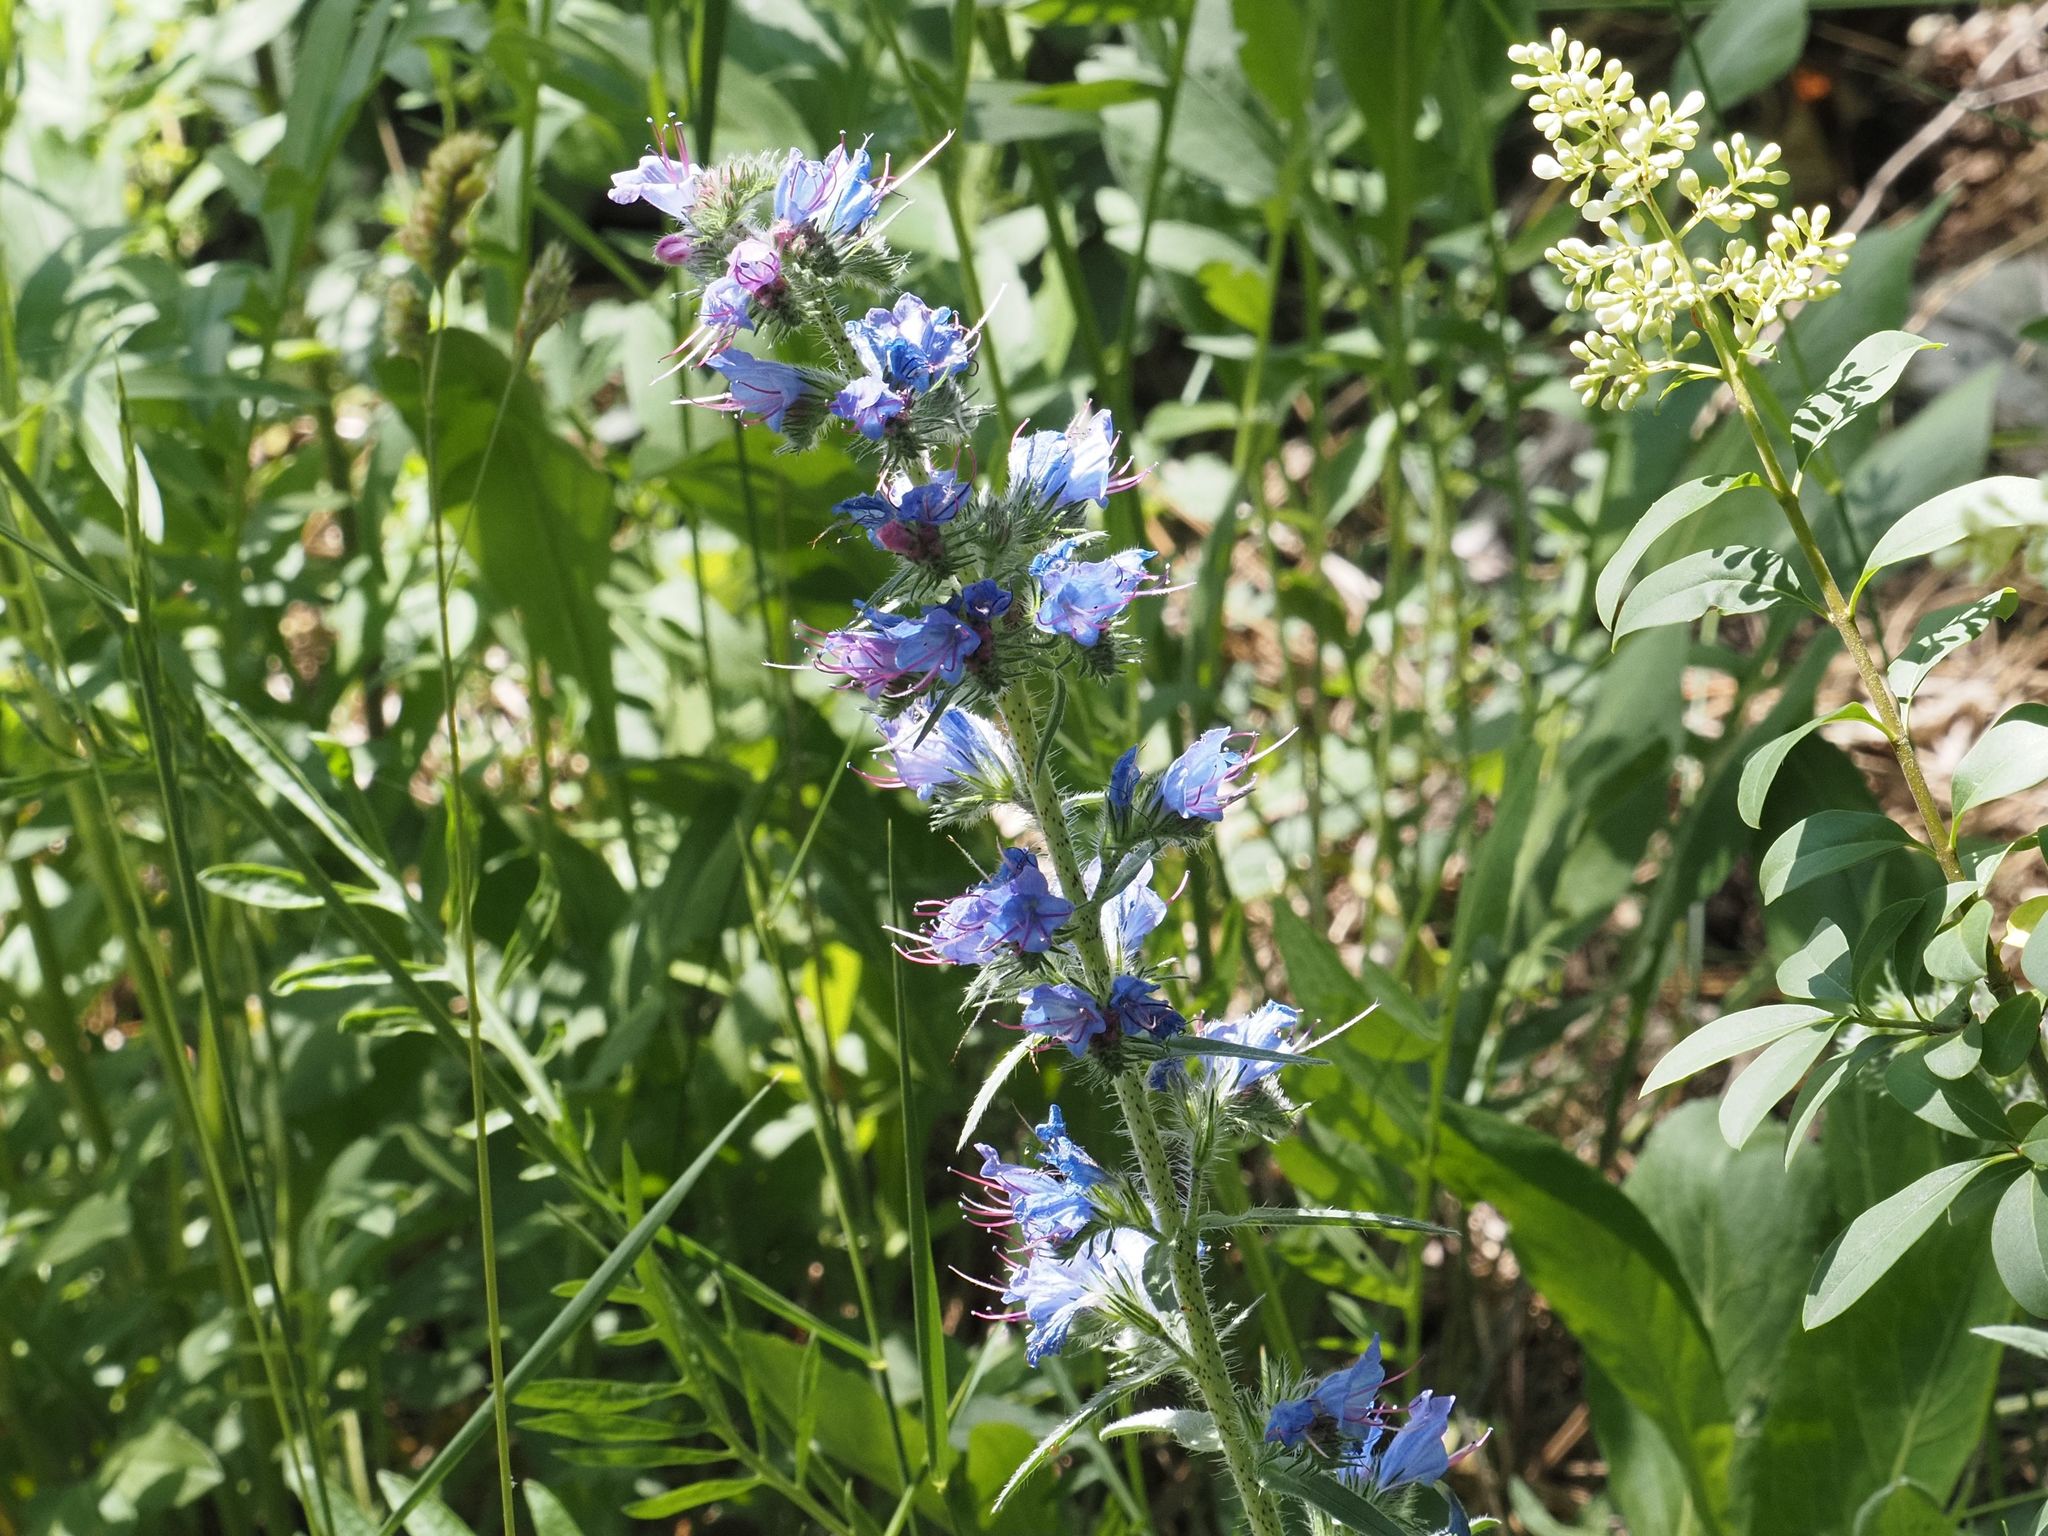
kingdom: Plantae
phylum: Tracheophyta
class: Magnoliopsida
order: Boraginales
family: Boraginaceae
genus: Echium
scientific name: Echium vulgare
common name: Common viper's bugloss
